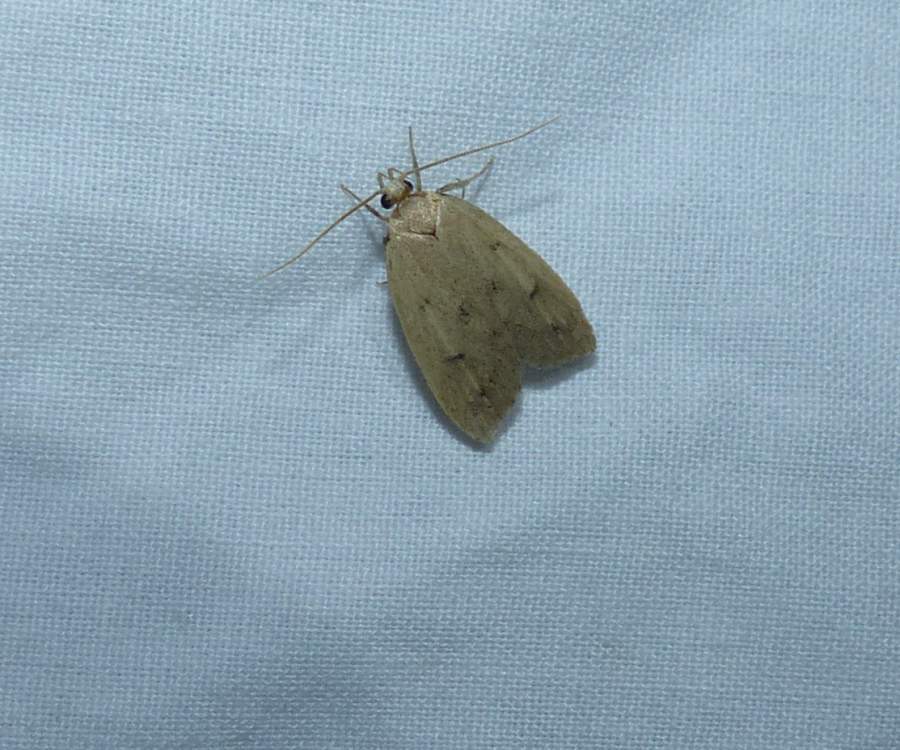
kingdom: Animalia
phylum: Arthropoda
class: Insecta
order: Lepidoptera
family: Peleopodidae
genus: Machimia
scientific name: Machimia tentoriferella
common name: Gold-striped leaftier moth
